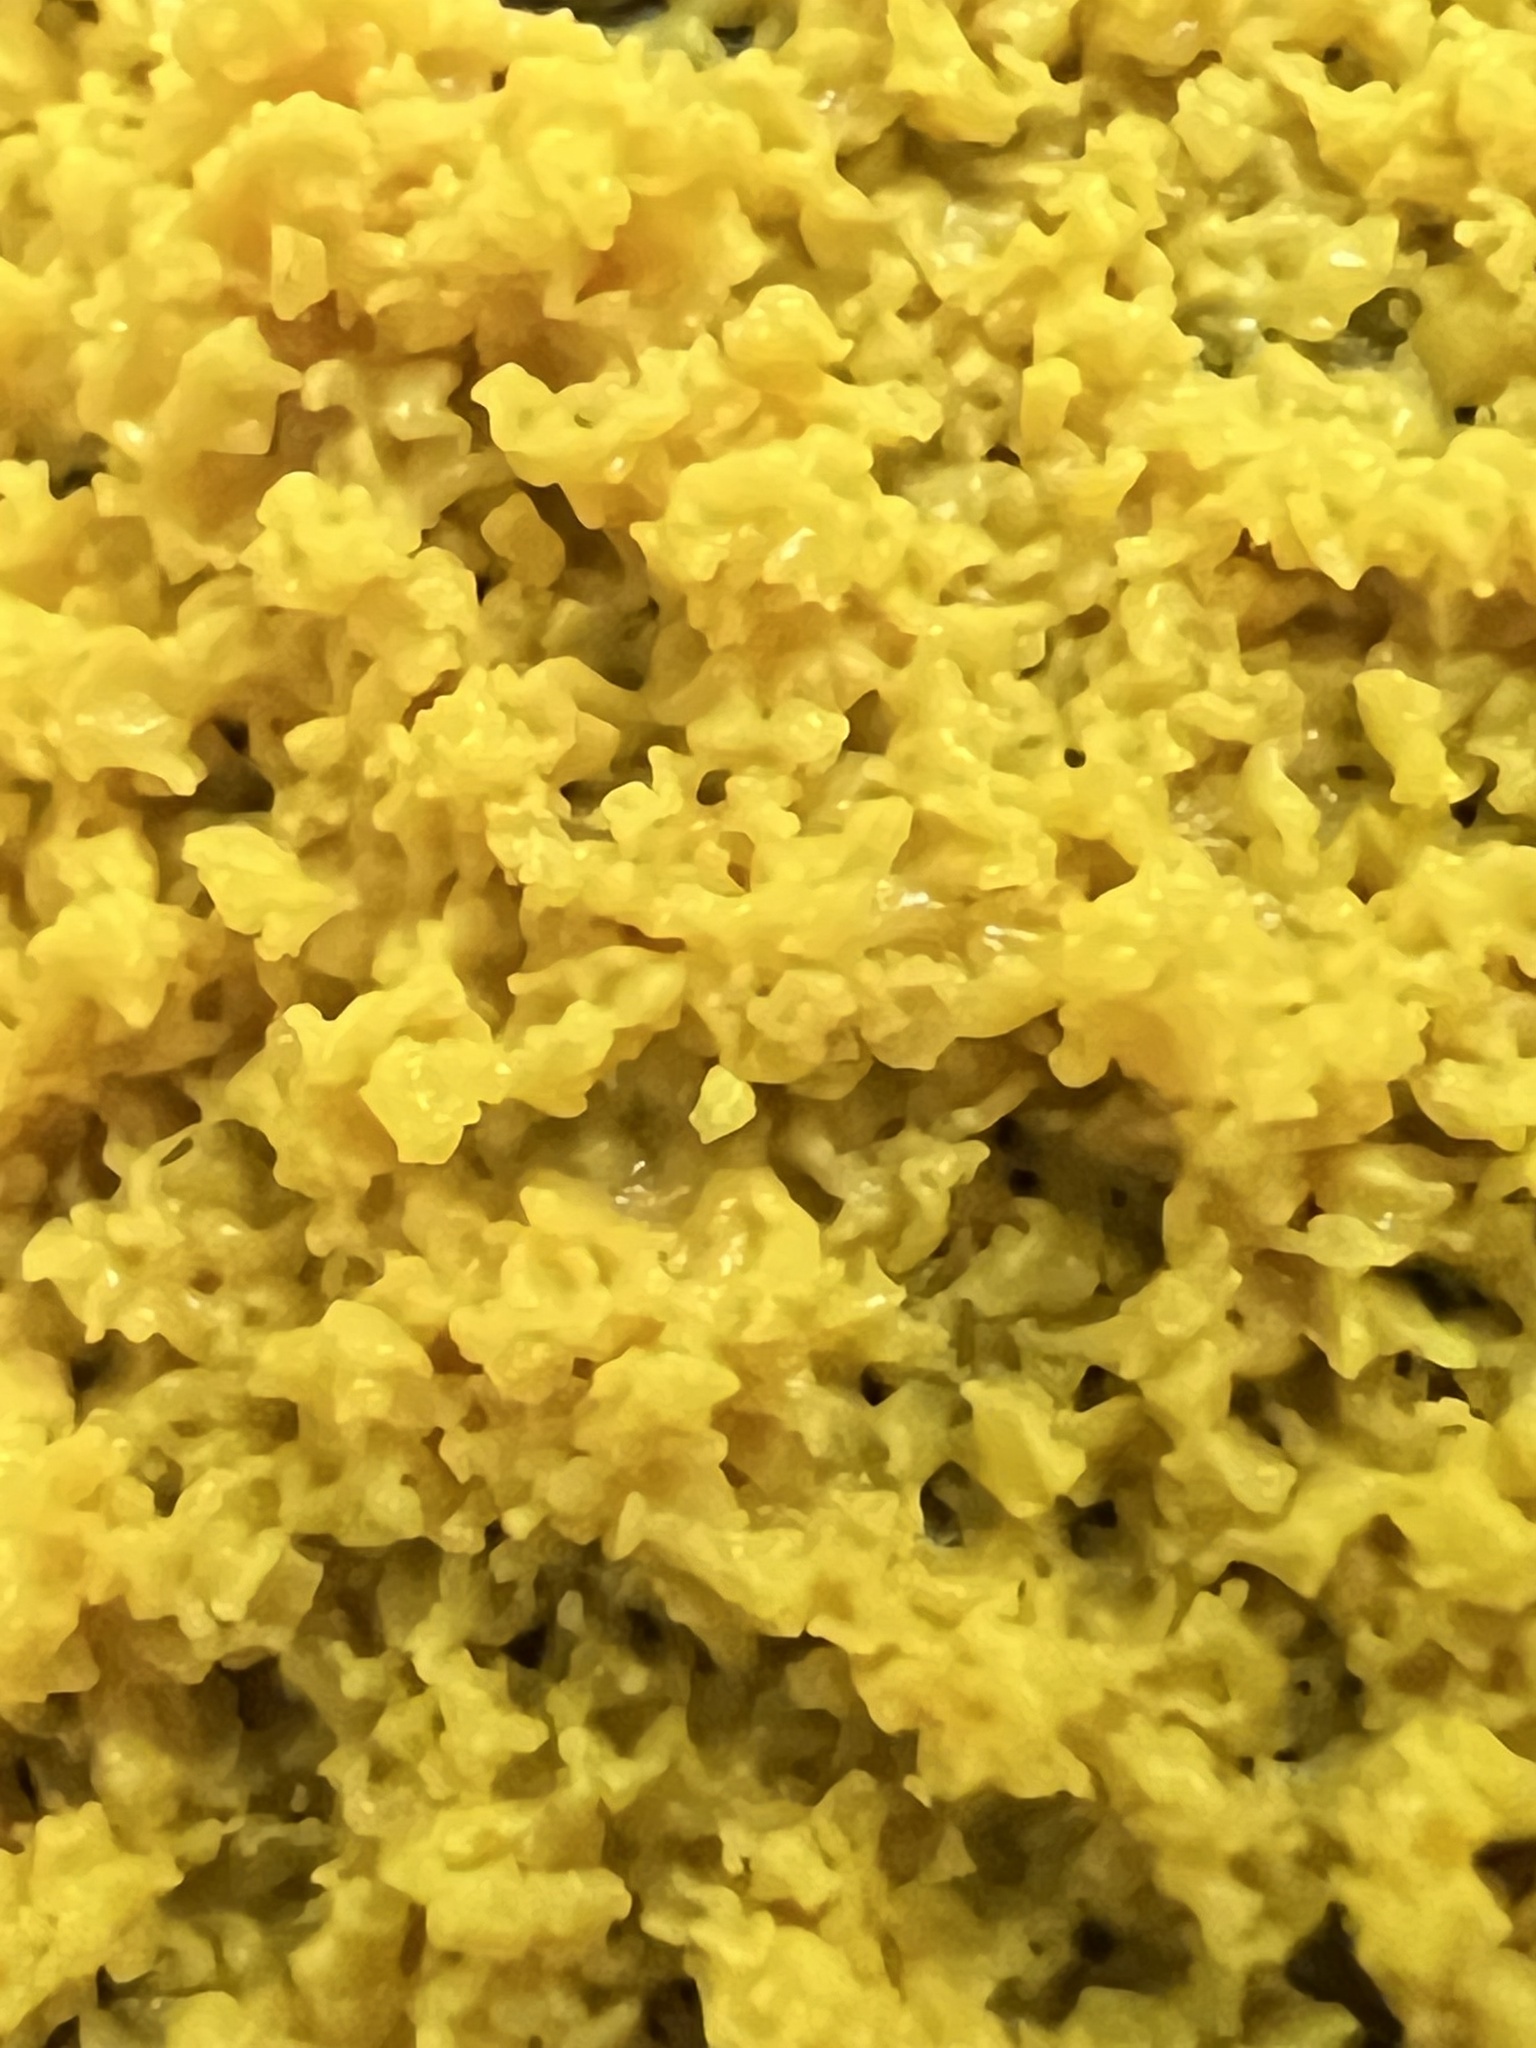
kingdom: Protozoa
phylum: Mycetozoa
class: Myxomycetes
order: Physarales
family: Physaraceae
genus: Fuligo
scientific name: Fuligo septica
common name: Dog vomit slime mold
